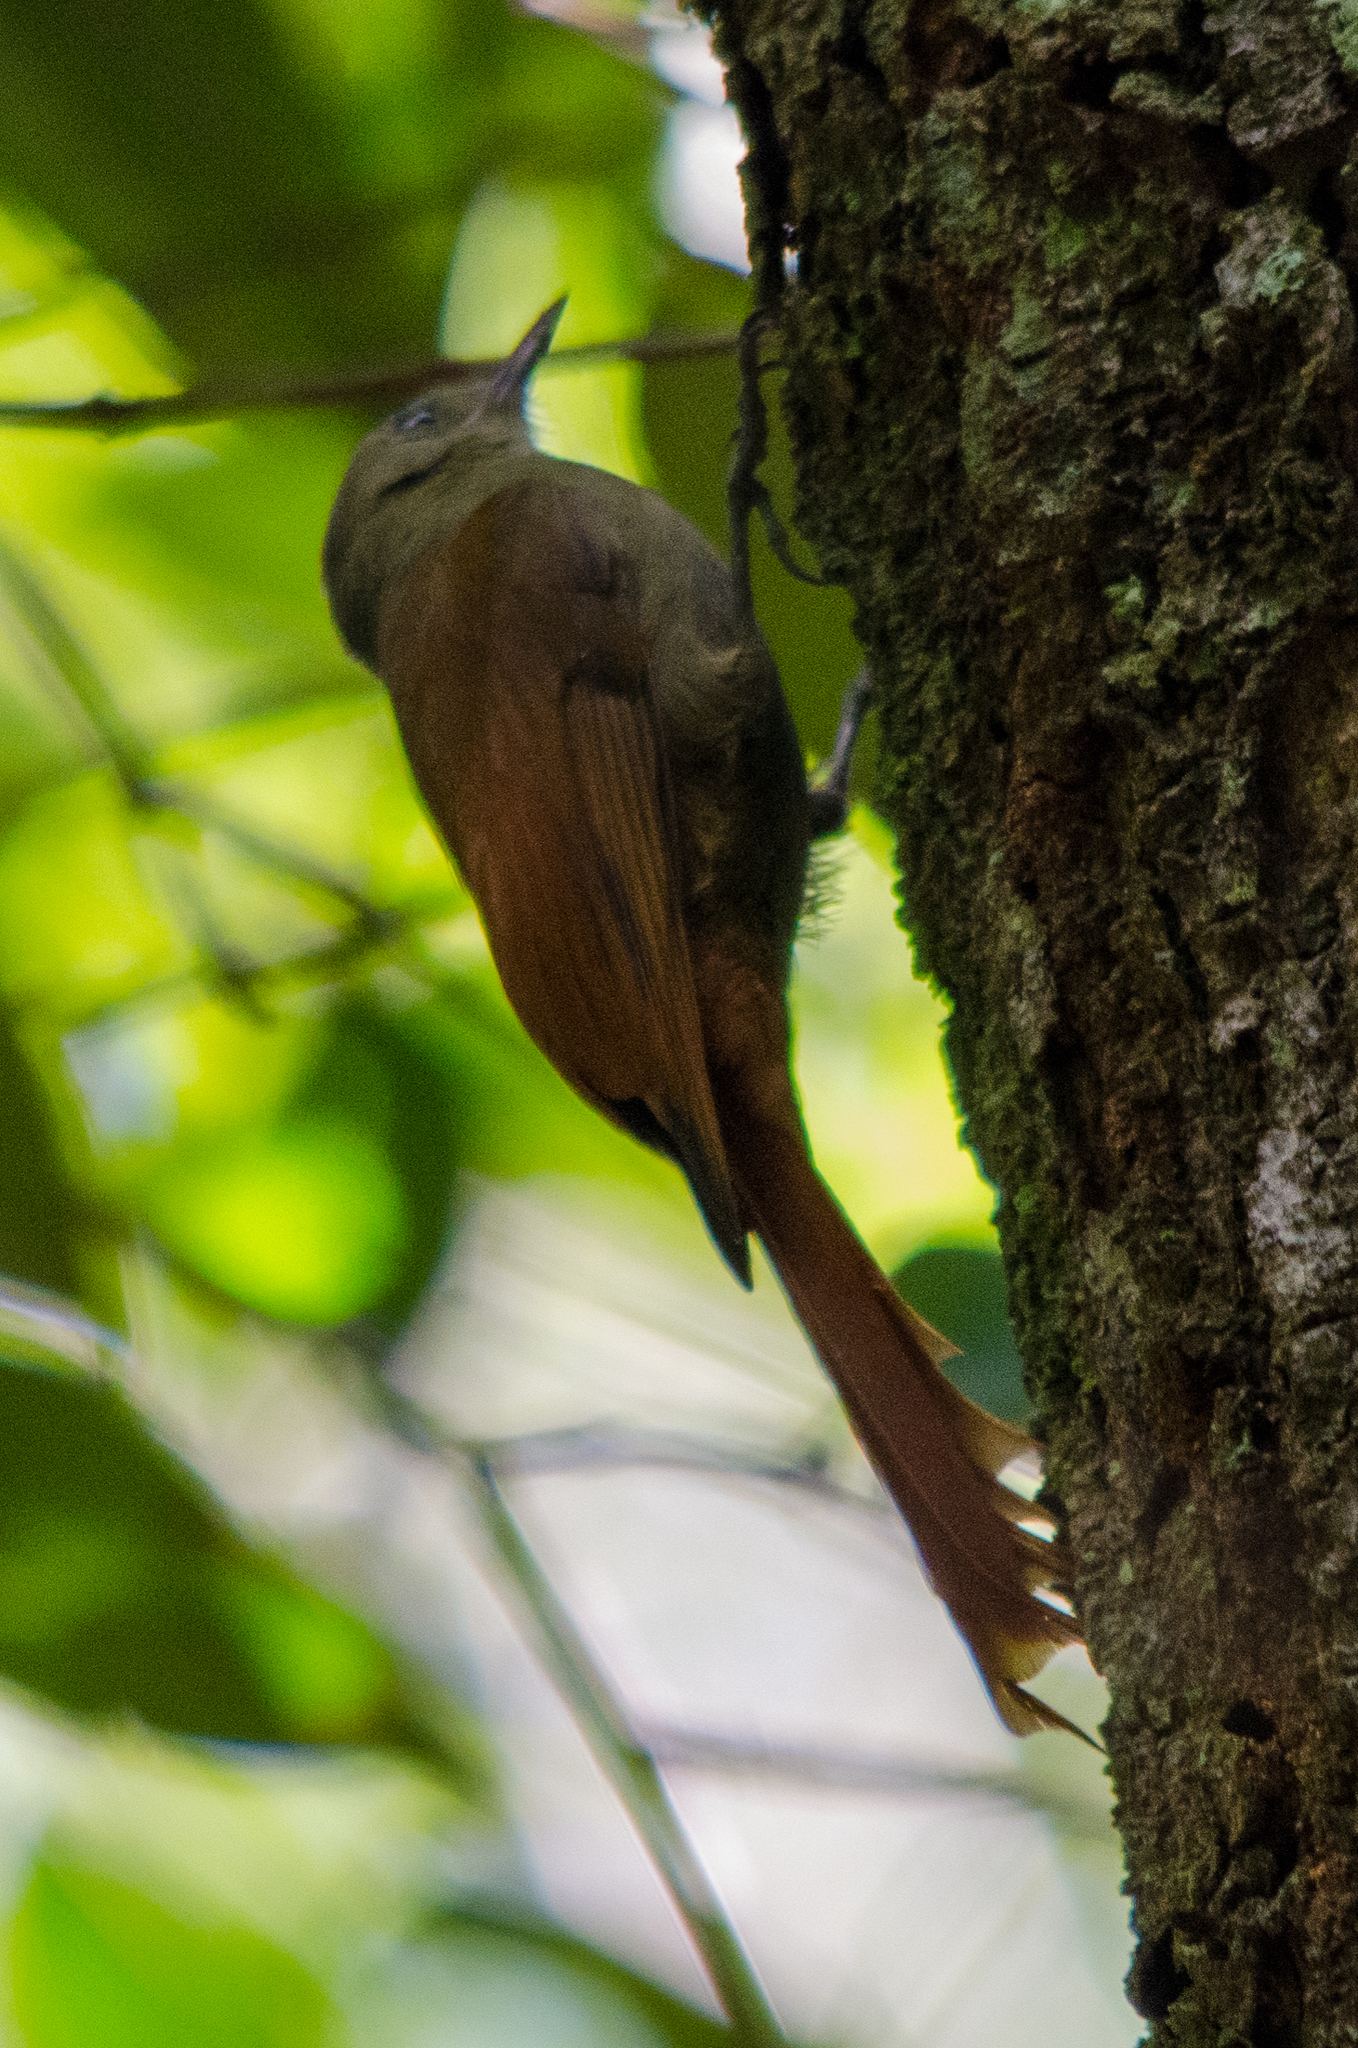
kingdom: Animalia
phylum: Chordata
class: Aves
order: Passeriformes
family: Furnariidae
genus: Sittasomus
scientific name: Sittasomus griseicapillus
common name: Olivaceous woodcreeper
